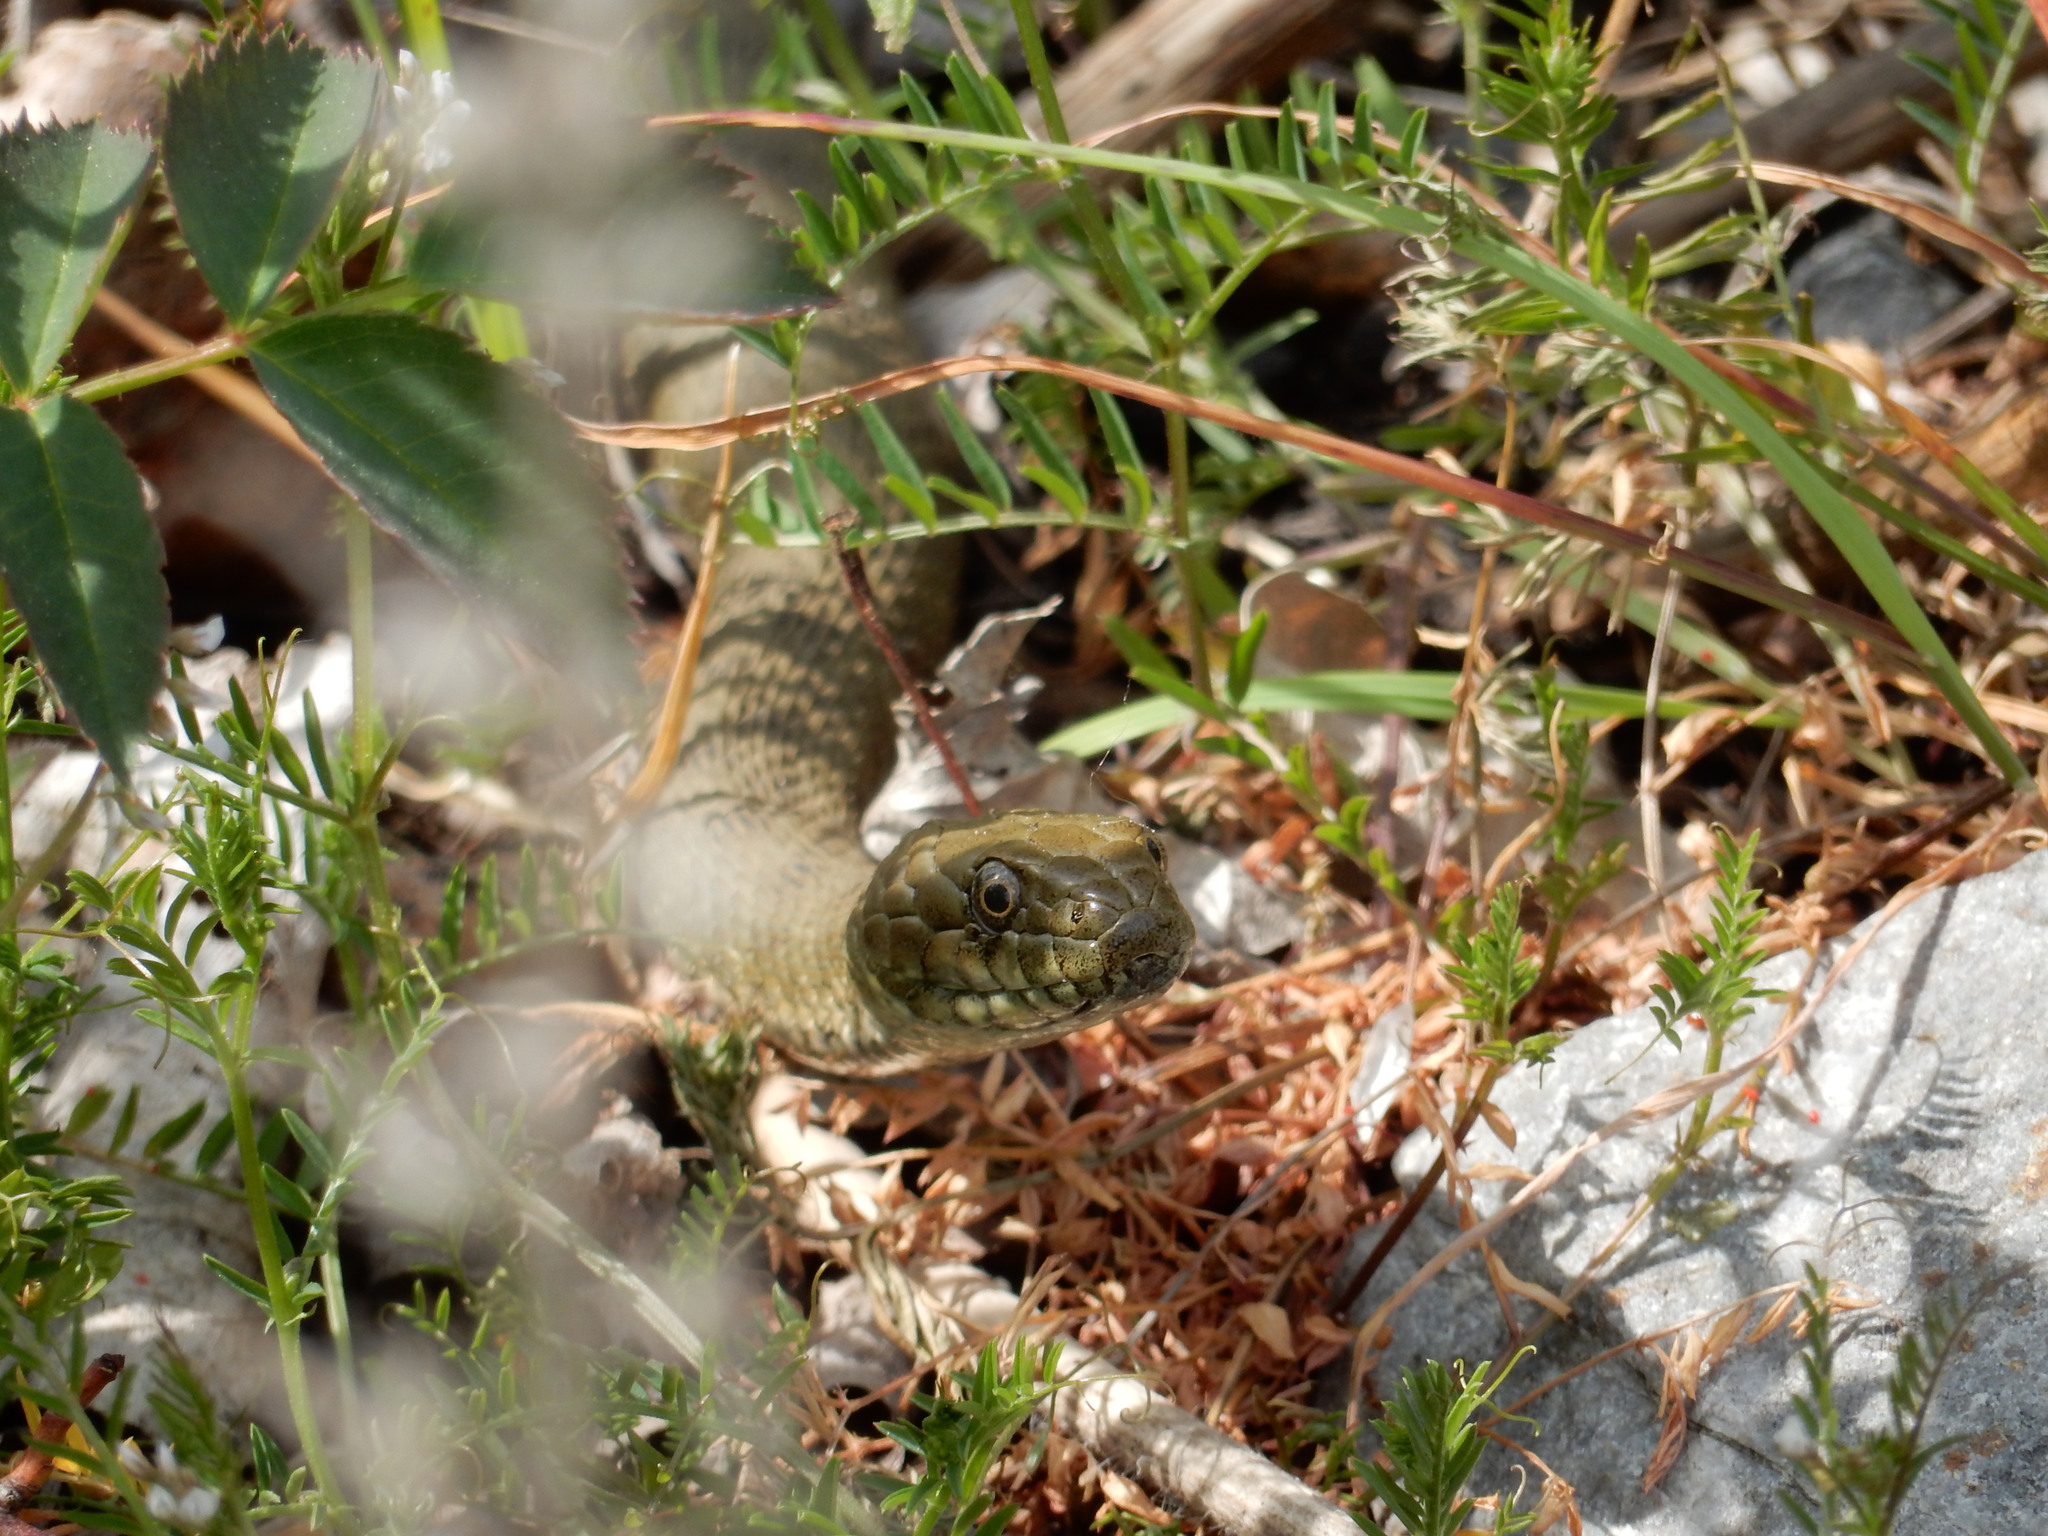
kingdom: Animalia
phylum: Chordata
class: Squamata
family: Colubridae
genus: Natrix
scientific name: Natrix tessellata
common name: Dice snake
